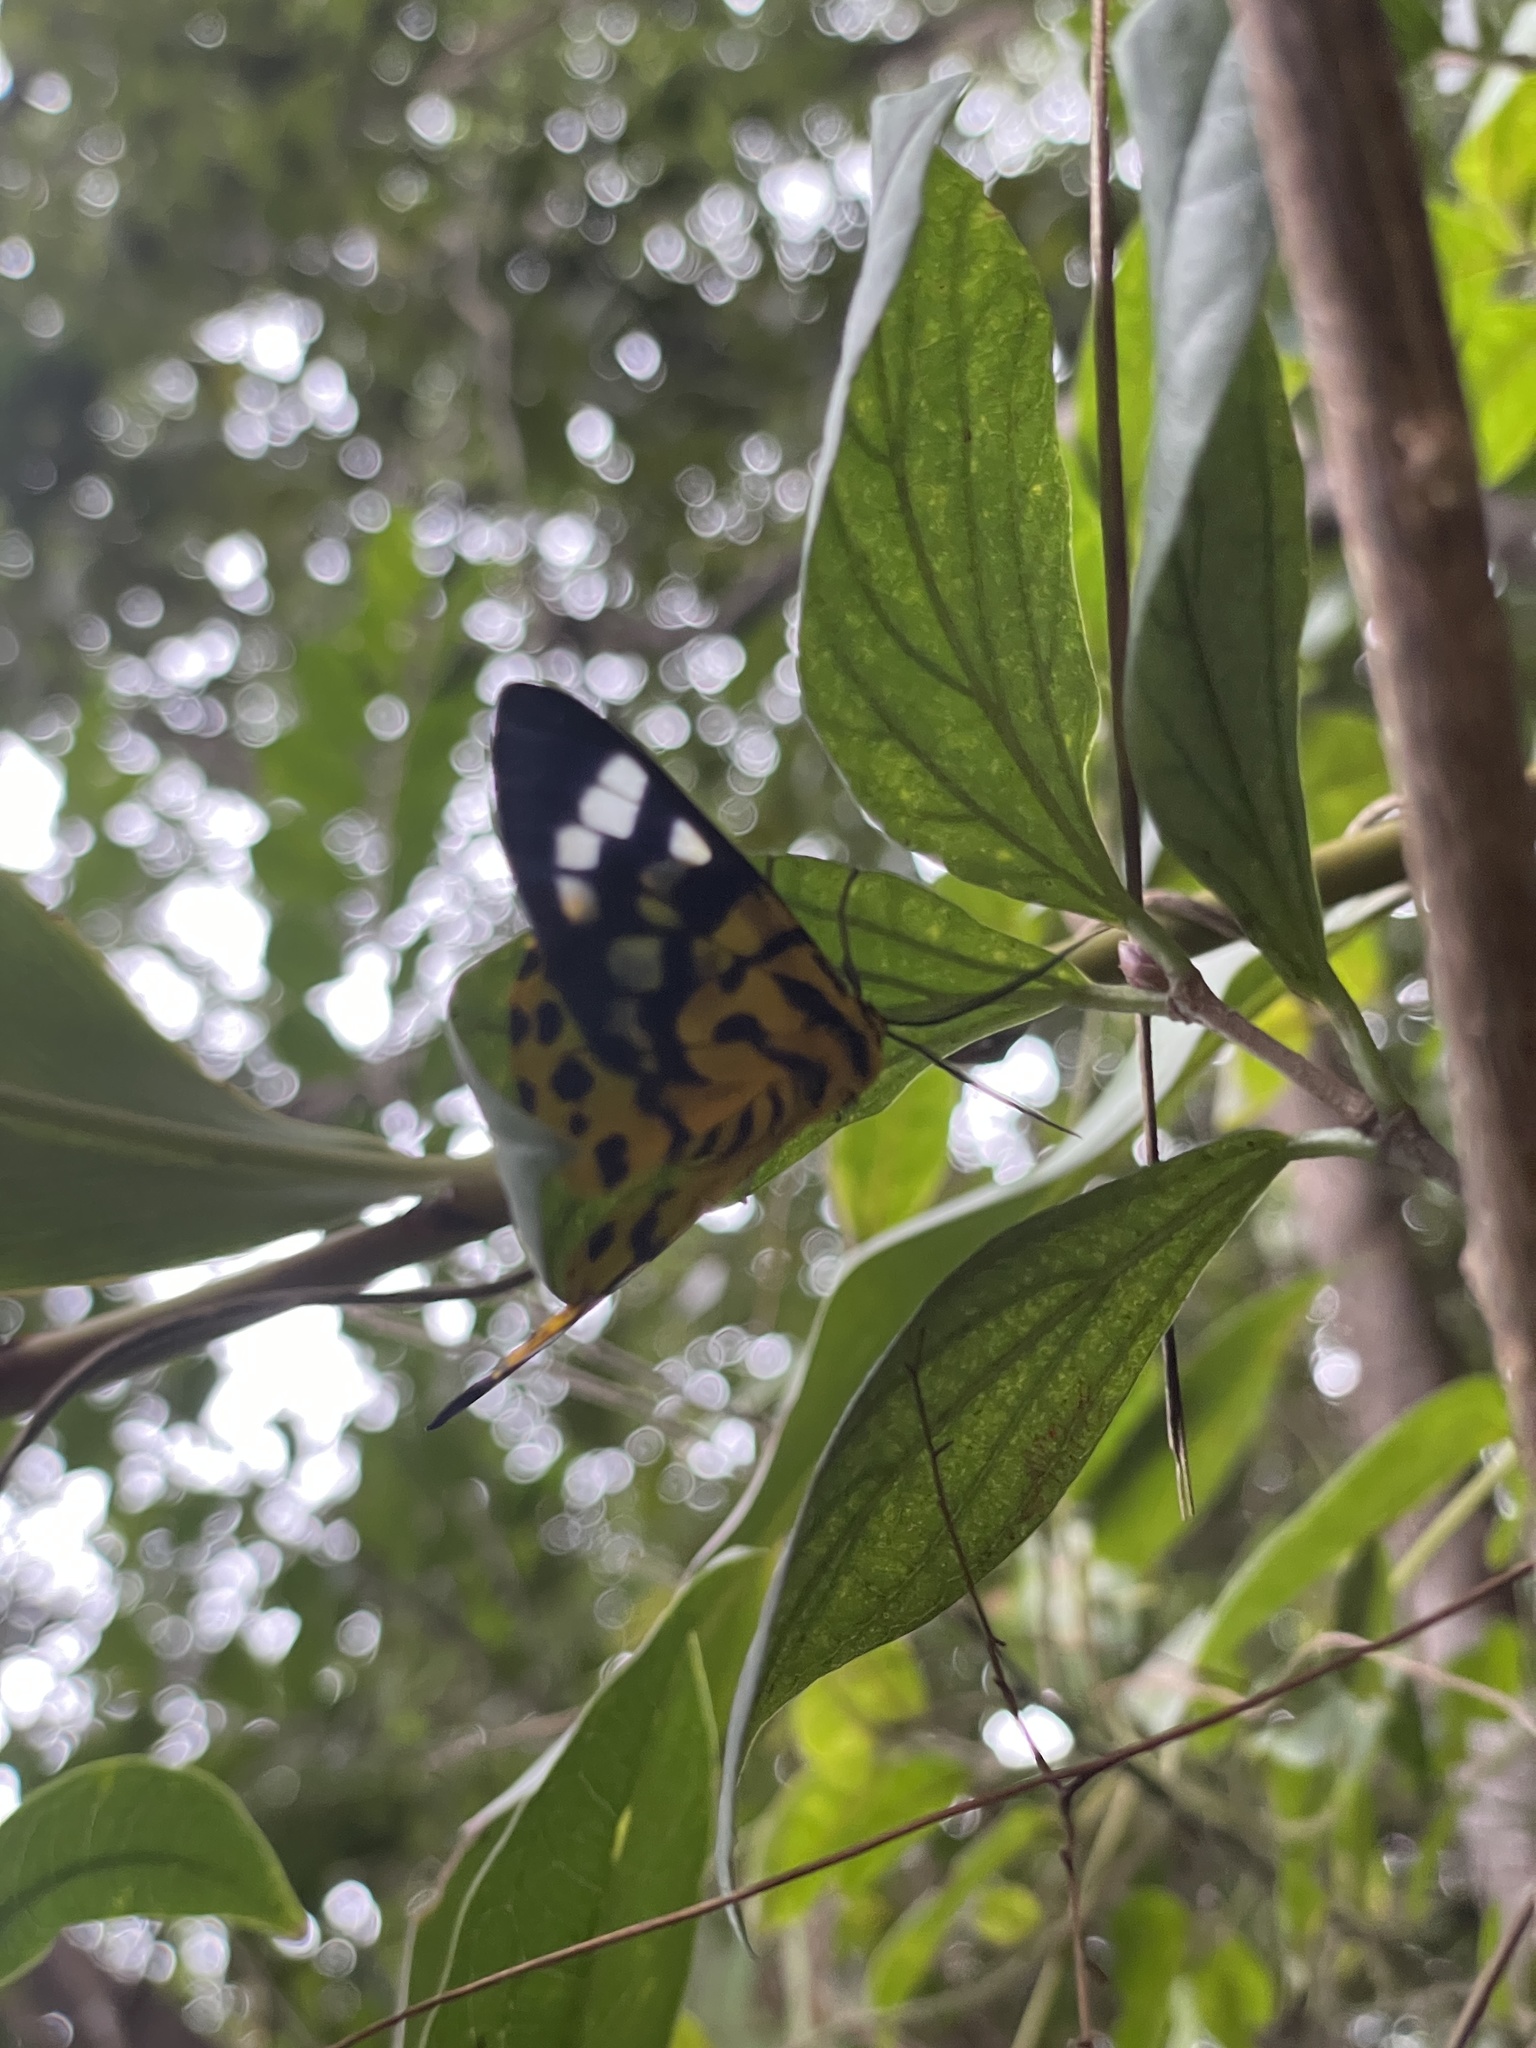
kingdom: Animalia
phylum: Arthropoda
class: Insecta
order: Lepidoptera
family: Geometridae
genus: Dysphania
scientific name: Dysphania militaris
